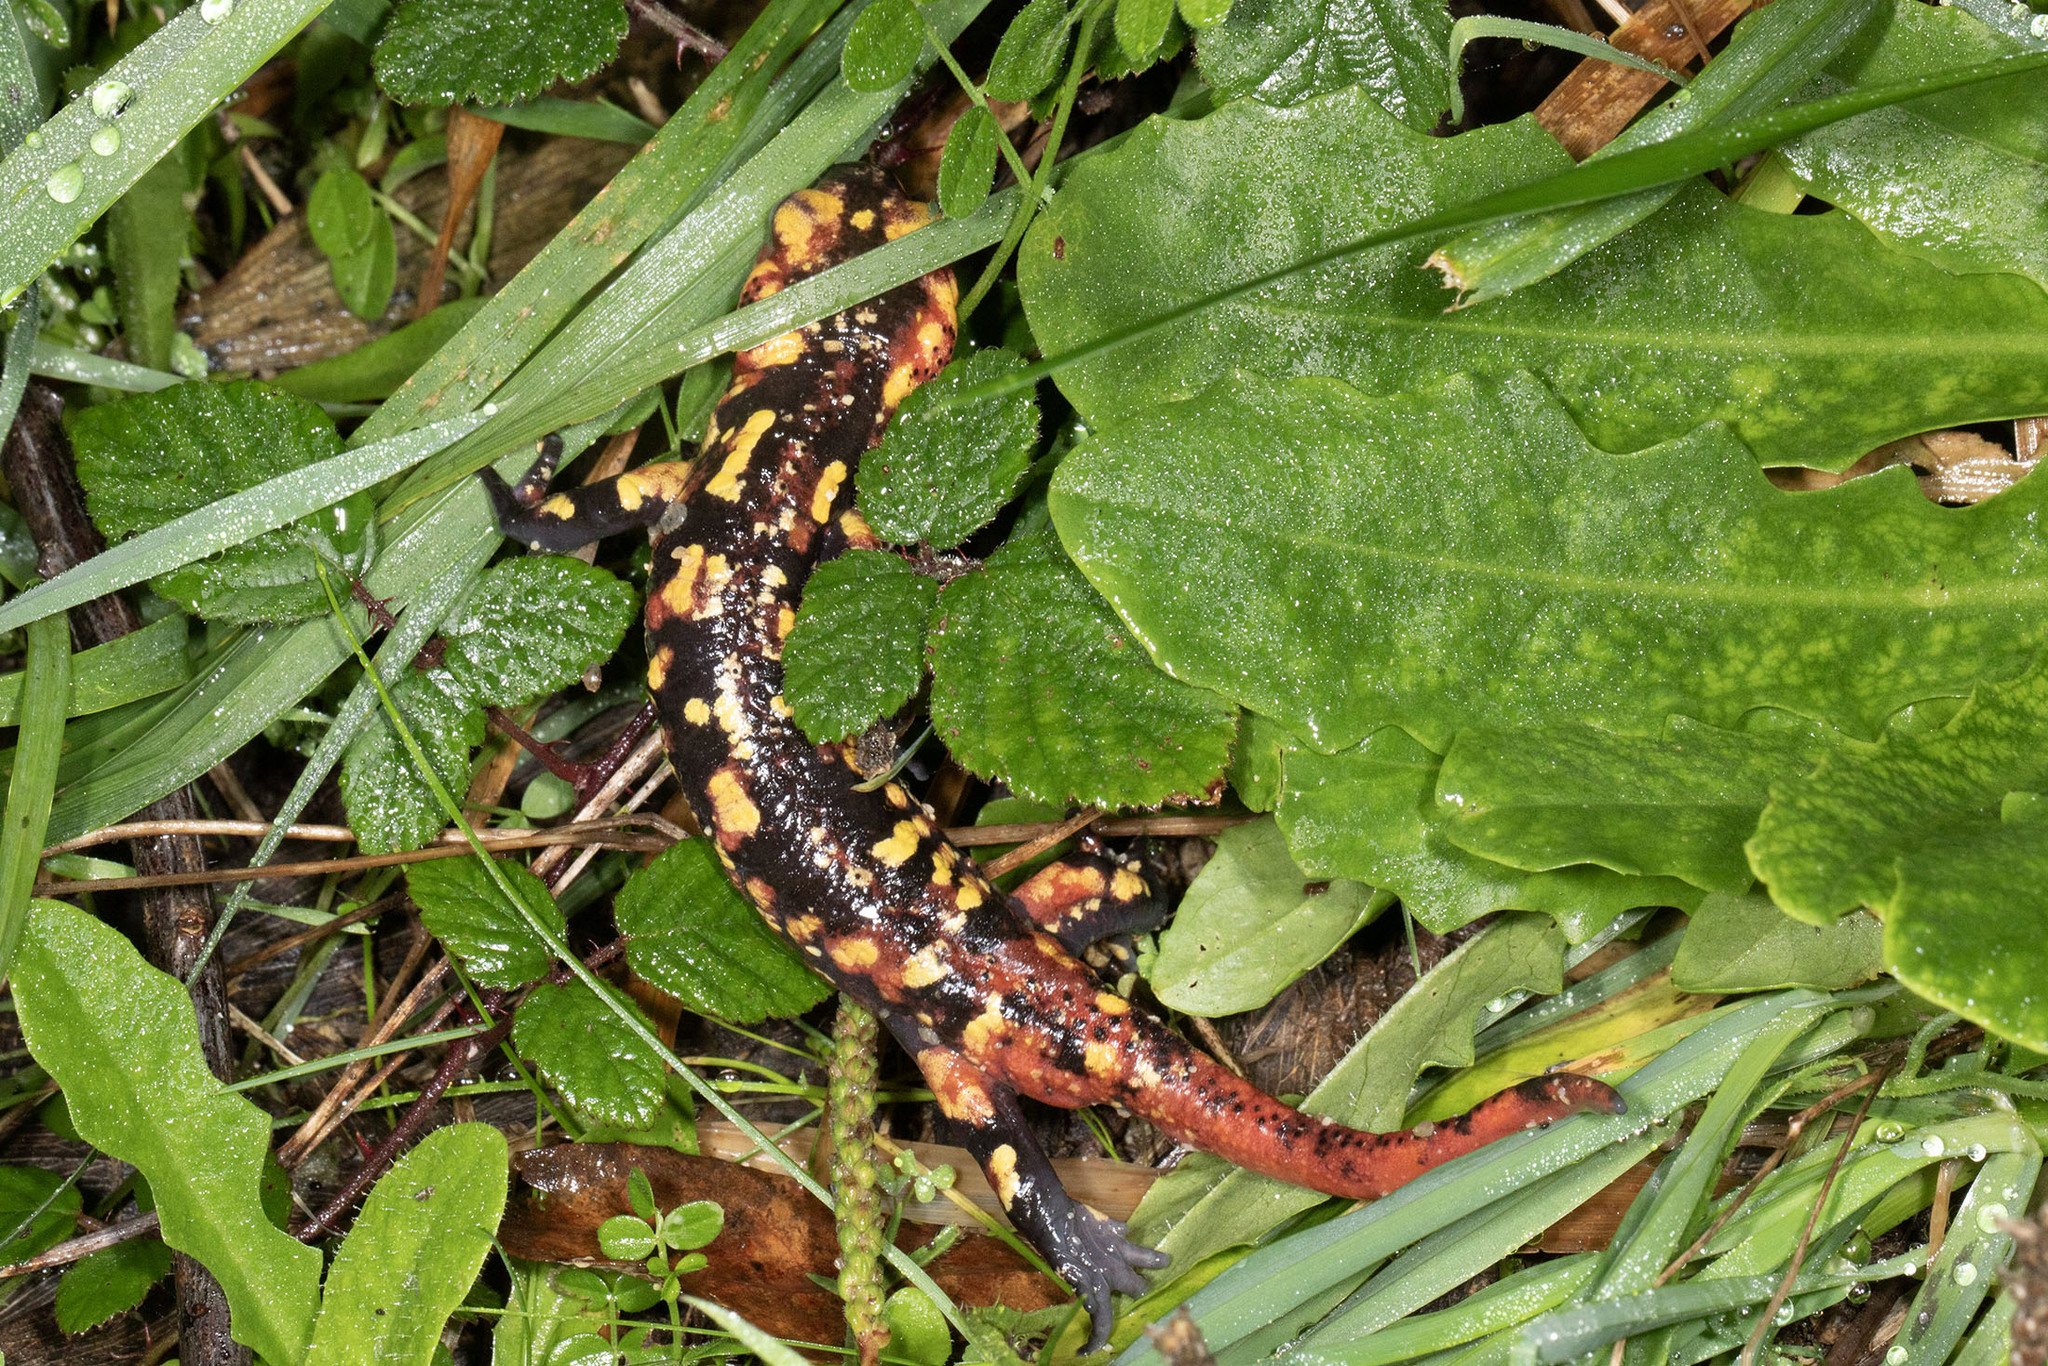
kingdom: Animalia
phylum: Chordata
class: Amphibia
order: Caudata
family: Salamandridae
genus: Salamandra
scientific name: Salamandra salamandra
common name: Fire salamander
